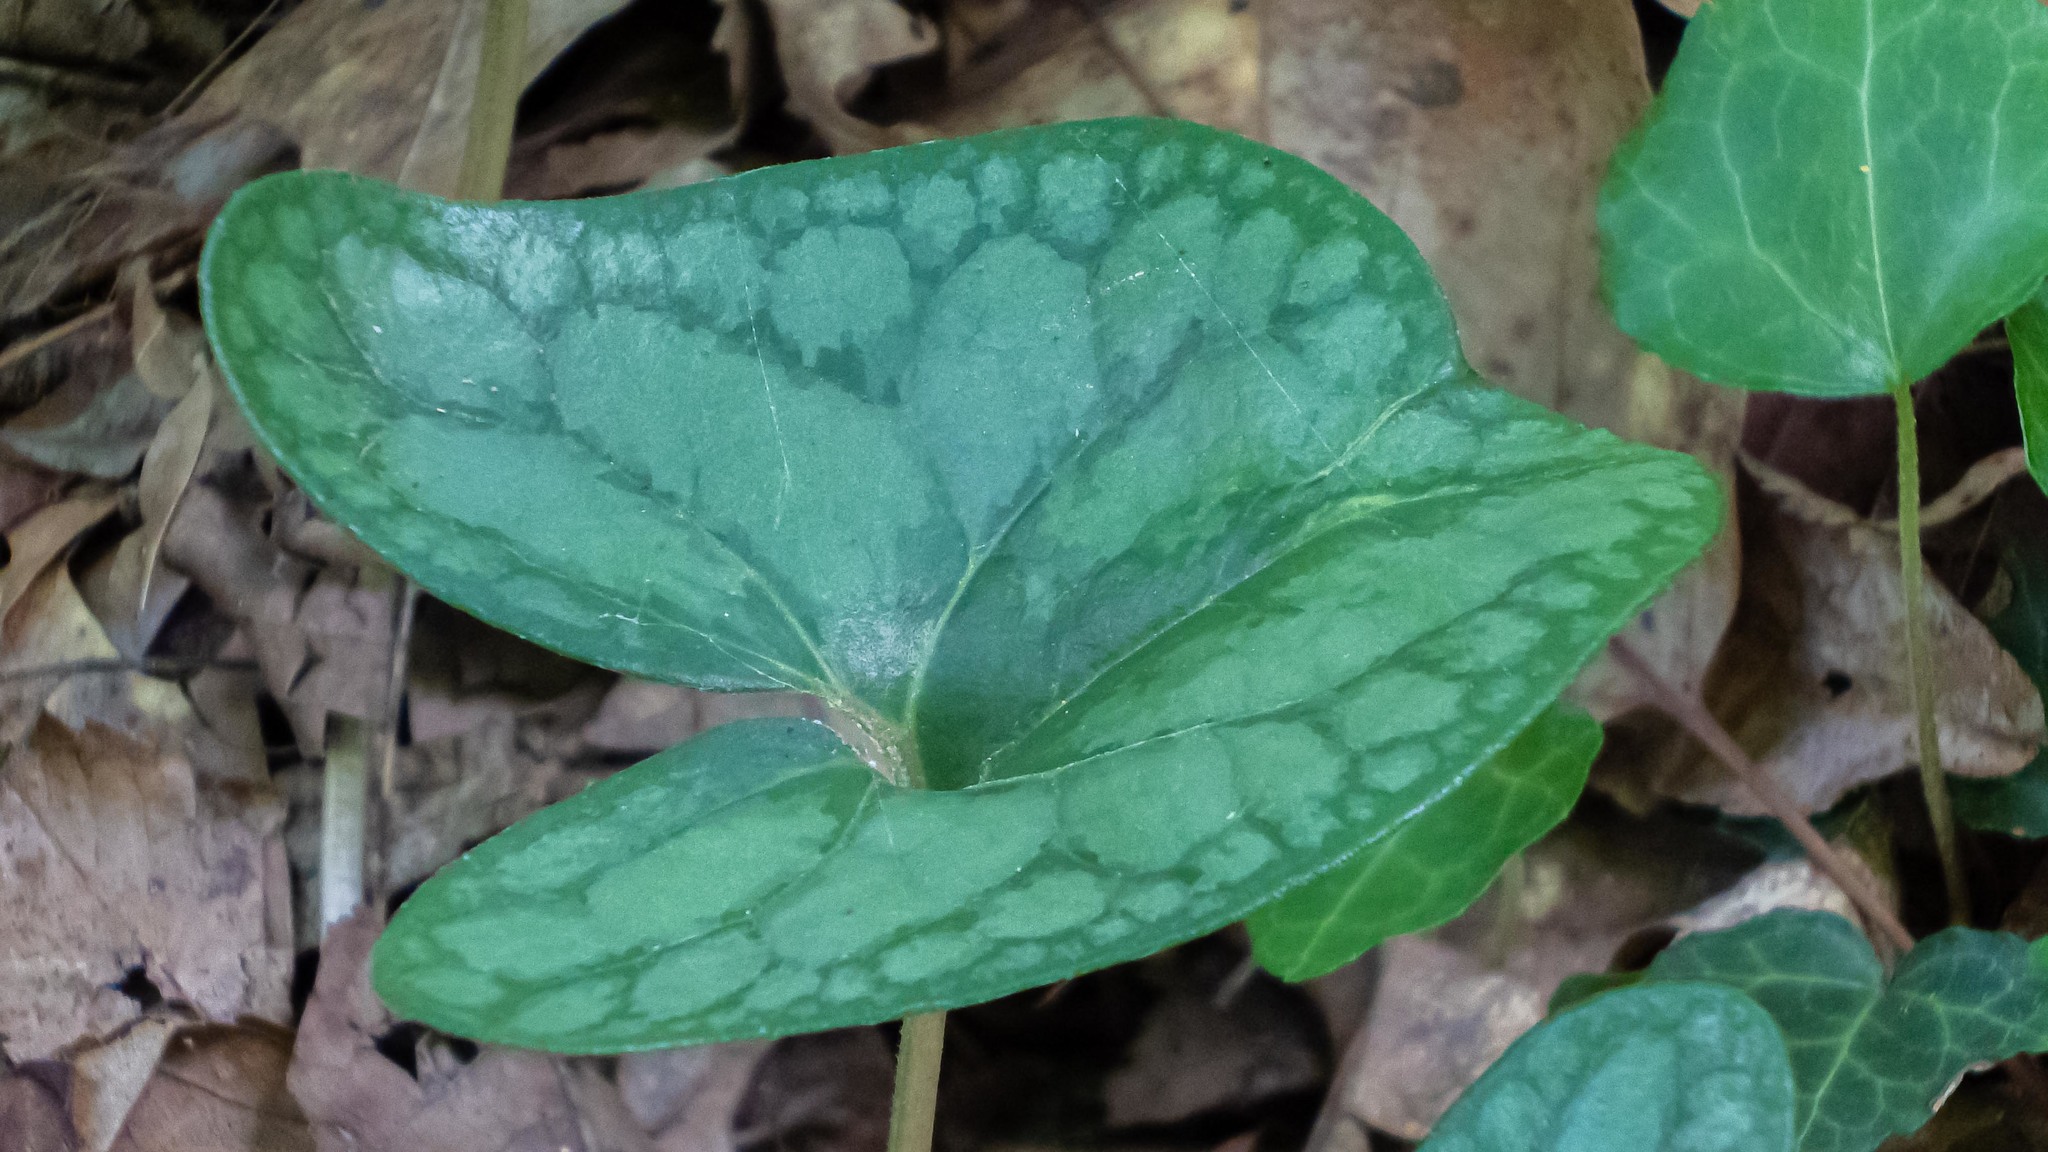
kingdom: Plantae
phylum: Tracheophyta
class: Magnoliopsida
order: Piperales
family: Aristolochiaceae
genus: Hexastylis
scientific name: Hexastylis arifolia
